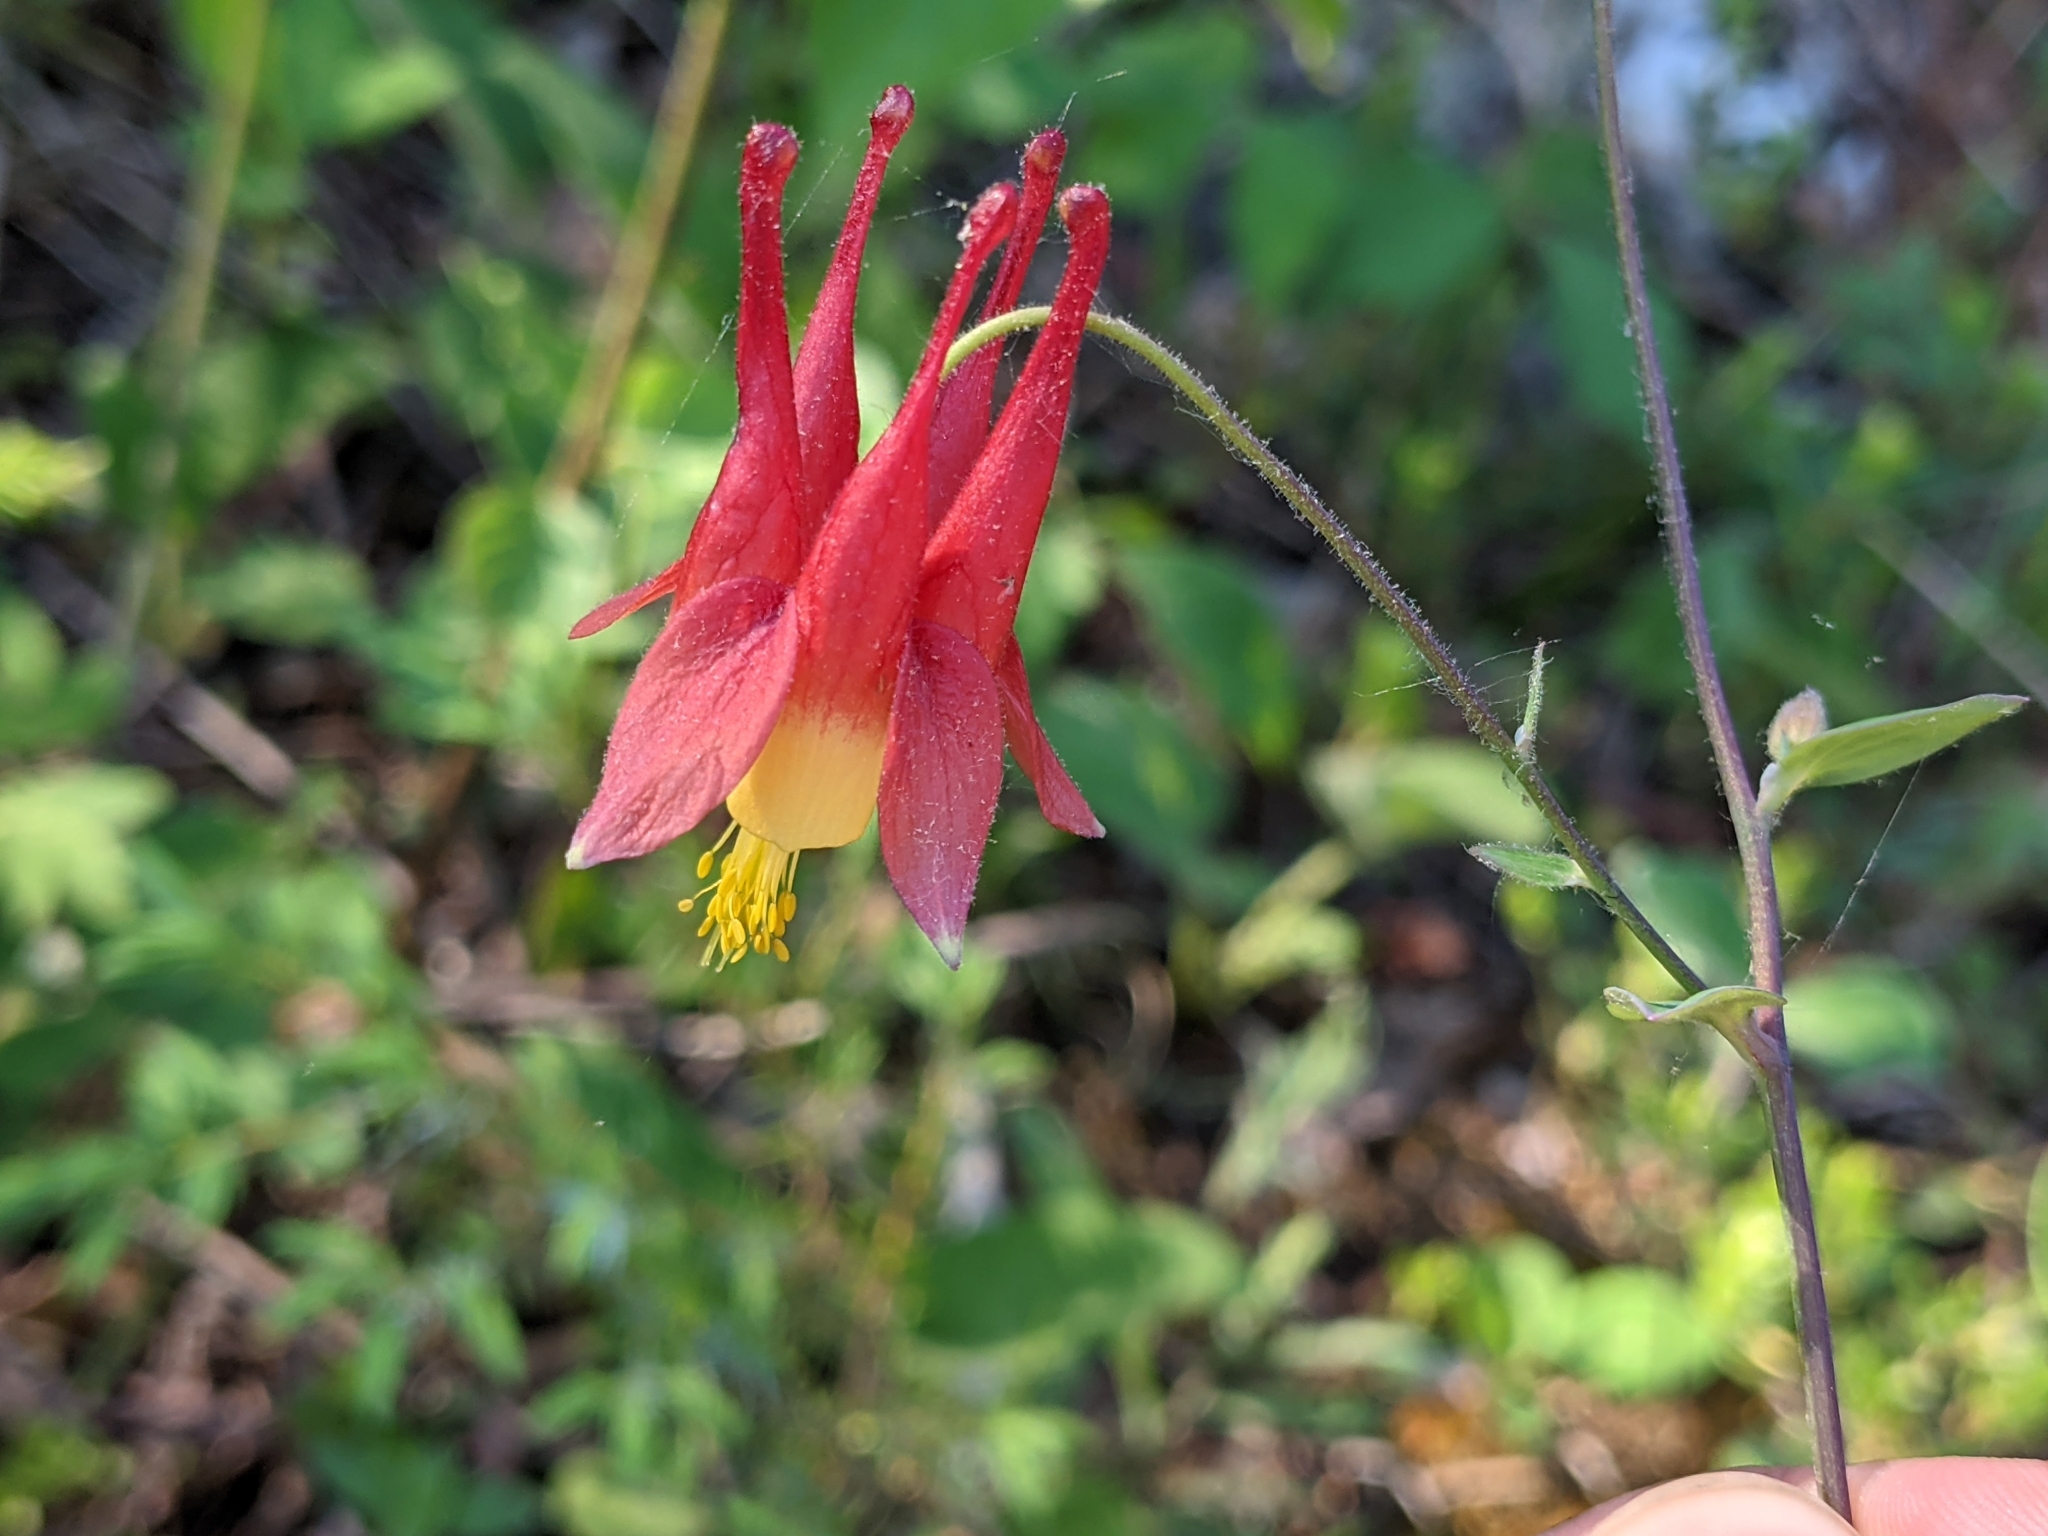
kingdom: Plantae
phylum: Tracheophyta
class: Magnoliopsida
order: Ranunculales
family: Ranunculaceae
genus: Aquilegia
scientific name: Aquilegia canadensis
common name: American columbine
